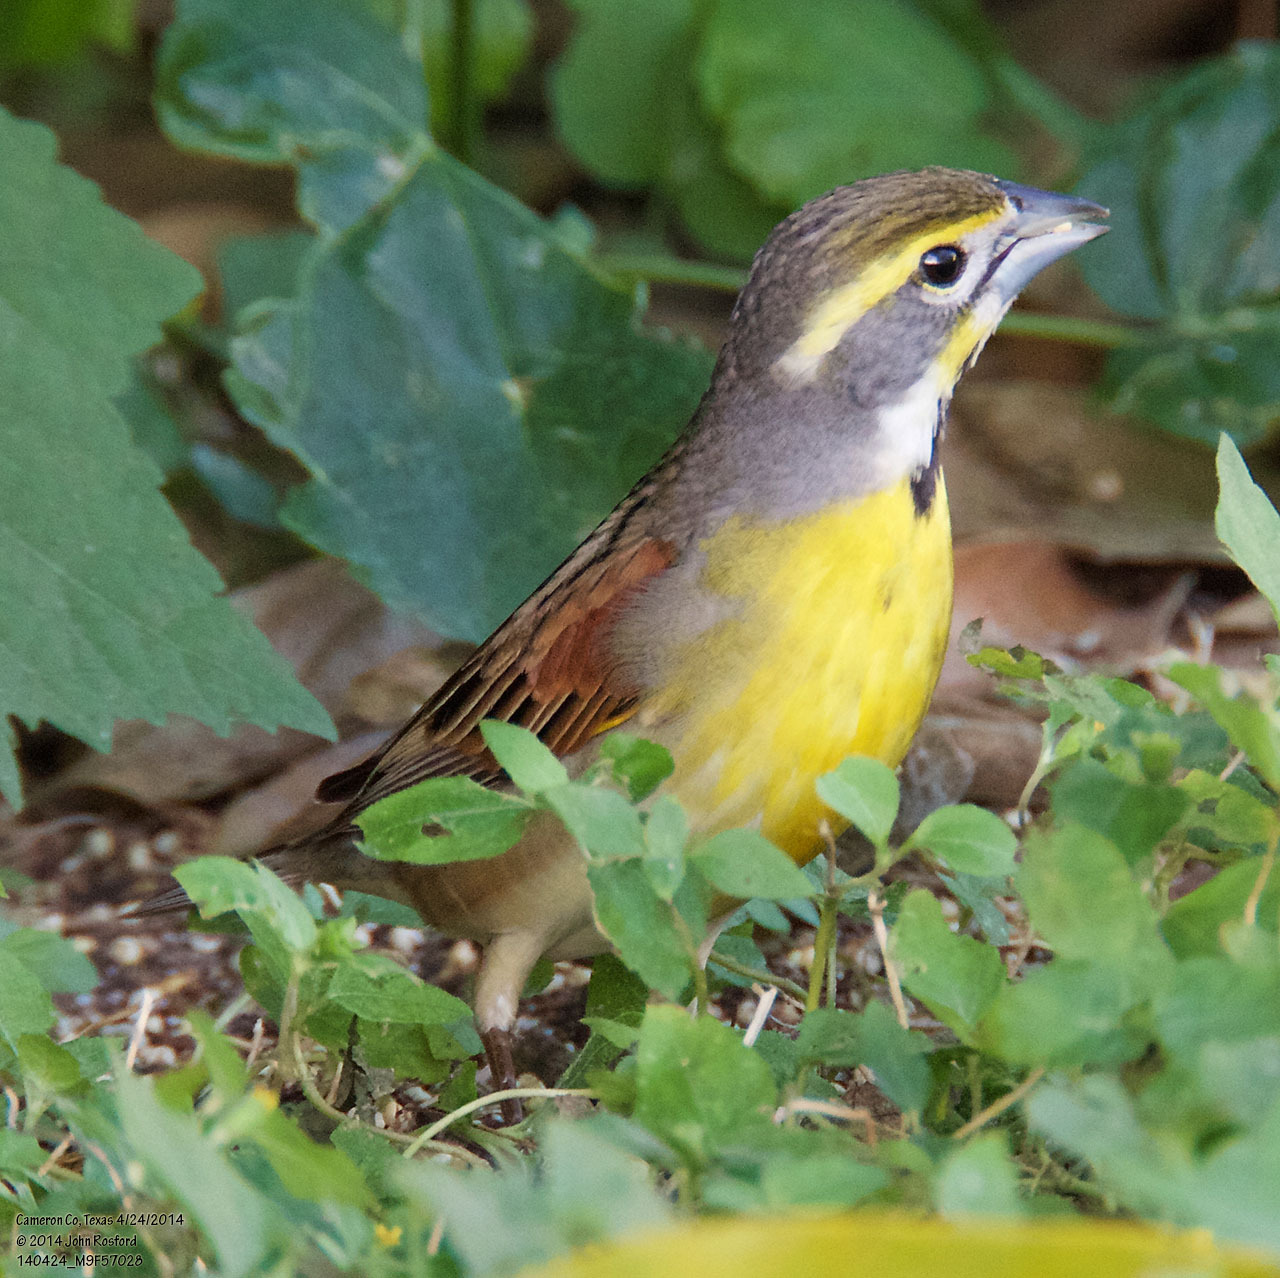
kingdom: Animalia
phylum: Chordata
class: Aves
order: Passeriformes
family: Cardinalidae
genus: Spiza
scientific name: Spiza americana
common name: Dickcissel
